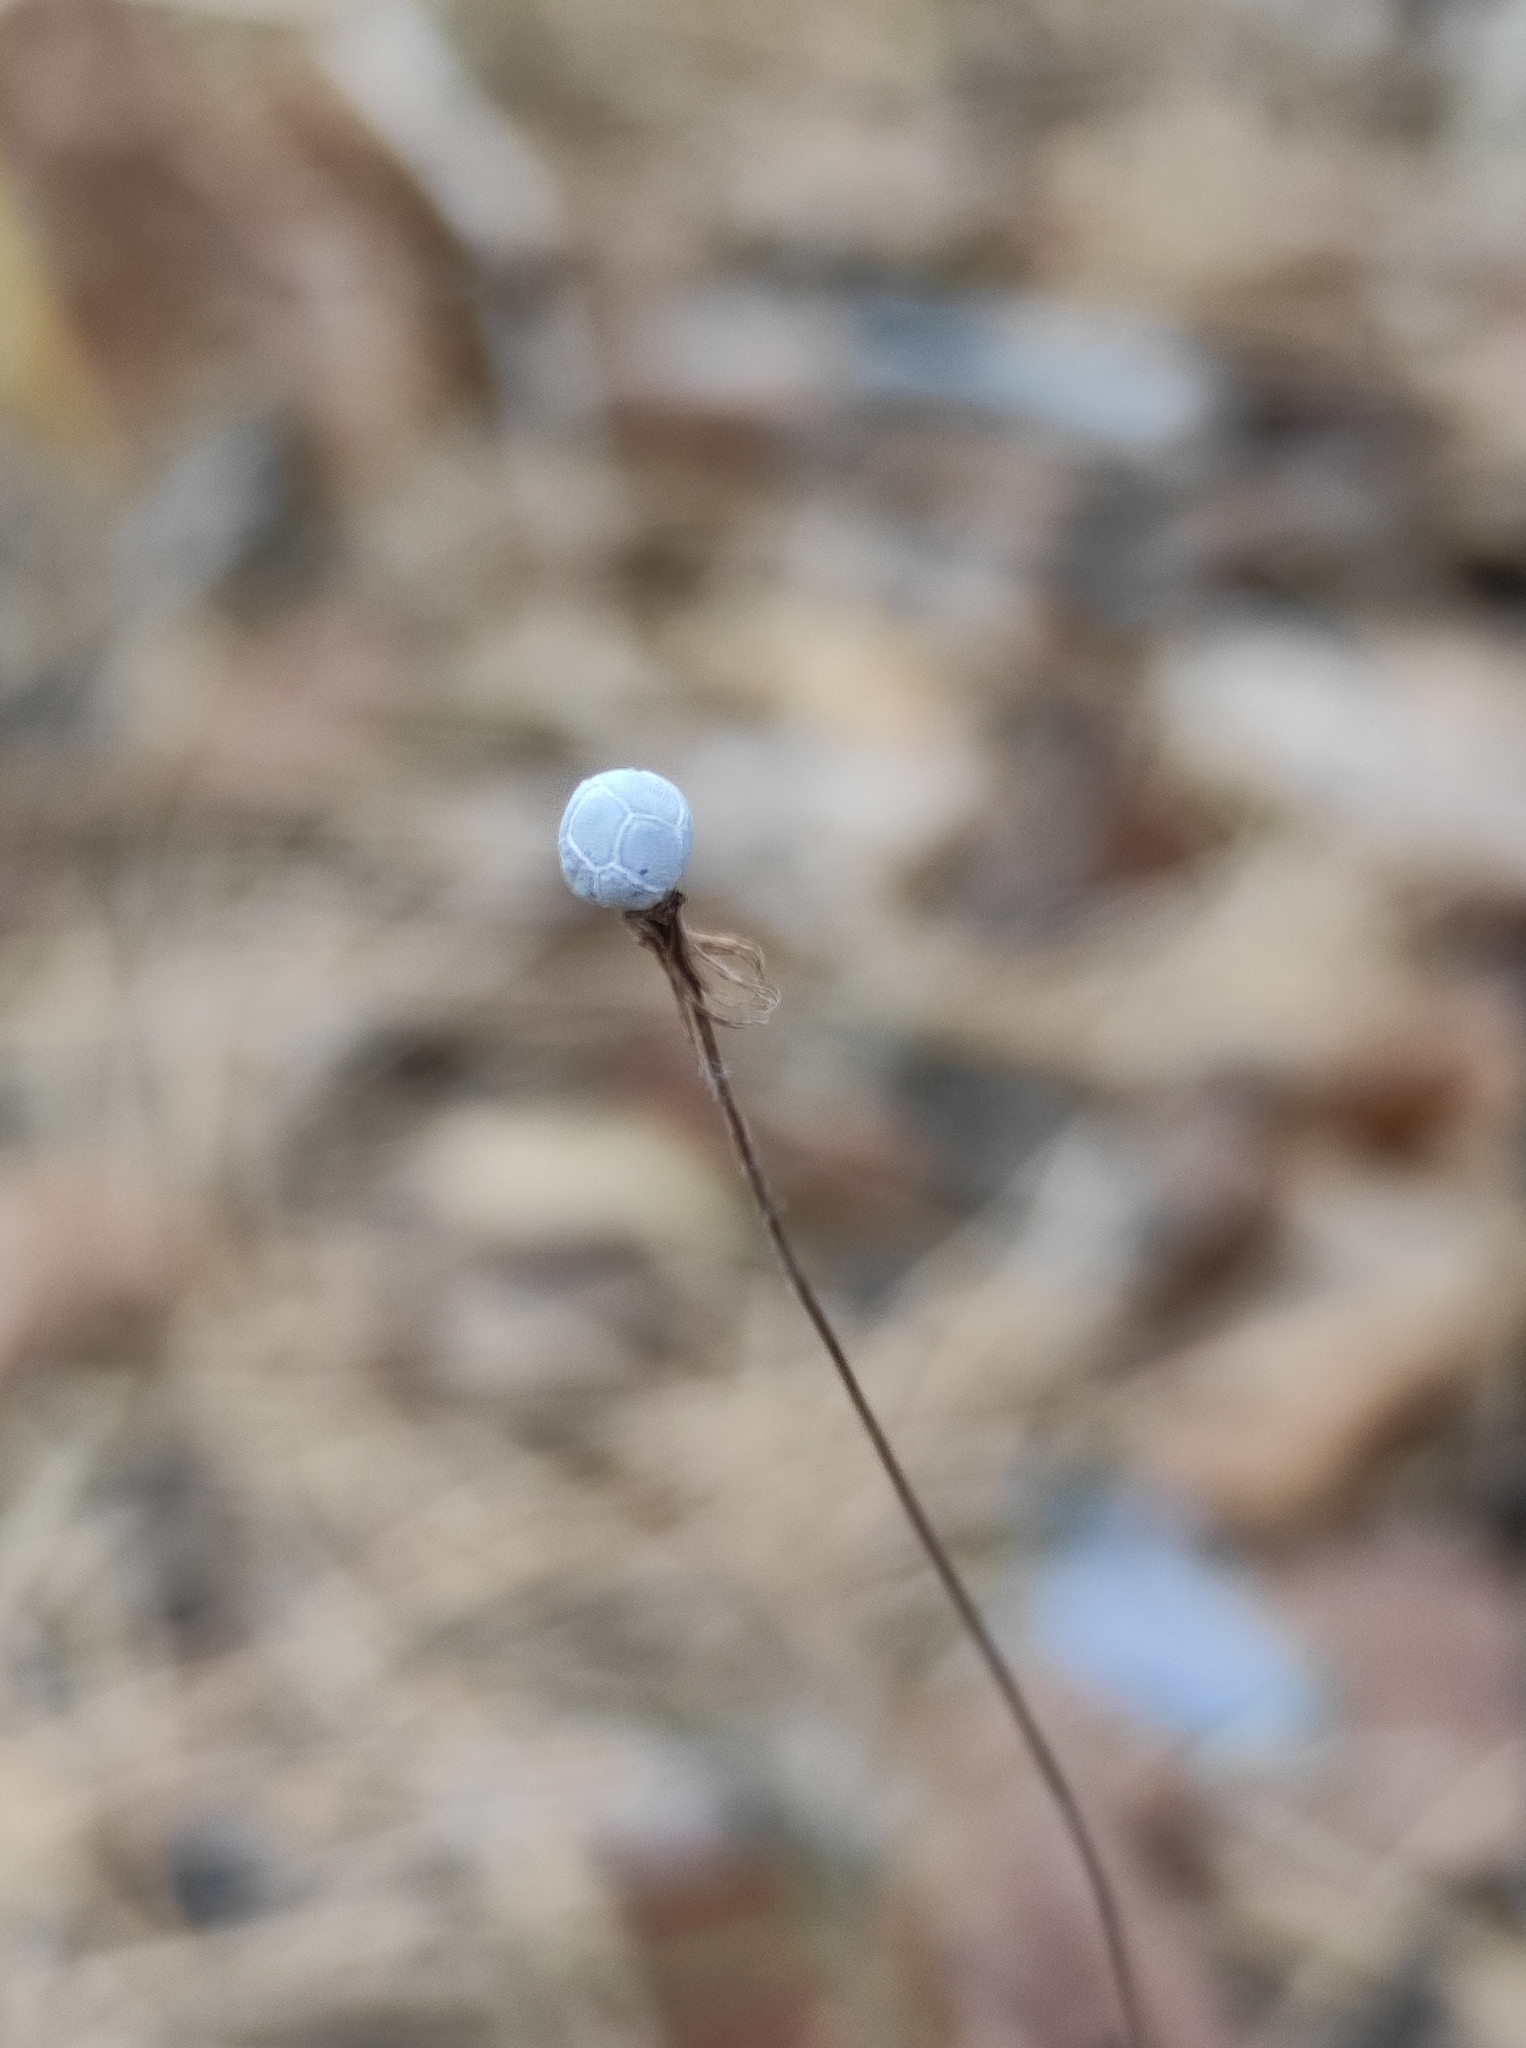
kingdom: Plantae
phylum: Tracheophyta
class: Magnoliopsida
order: Ericales
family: Primulaceae
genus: Lysimachia
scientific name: Lysimachia europaea
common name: Arctic starflower
